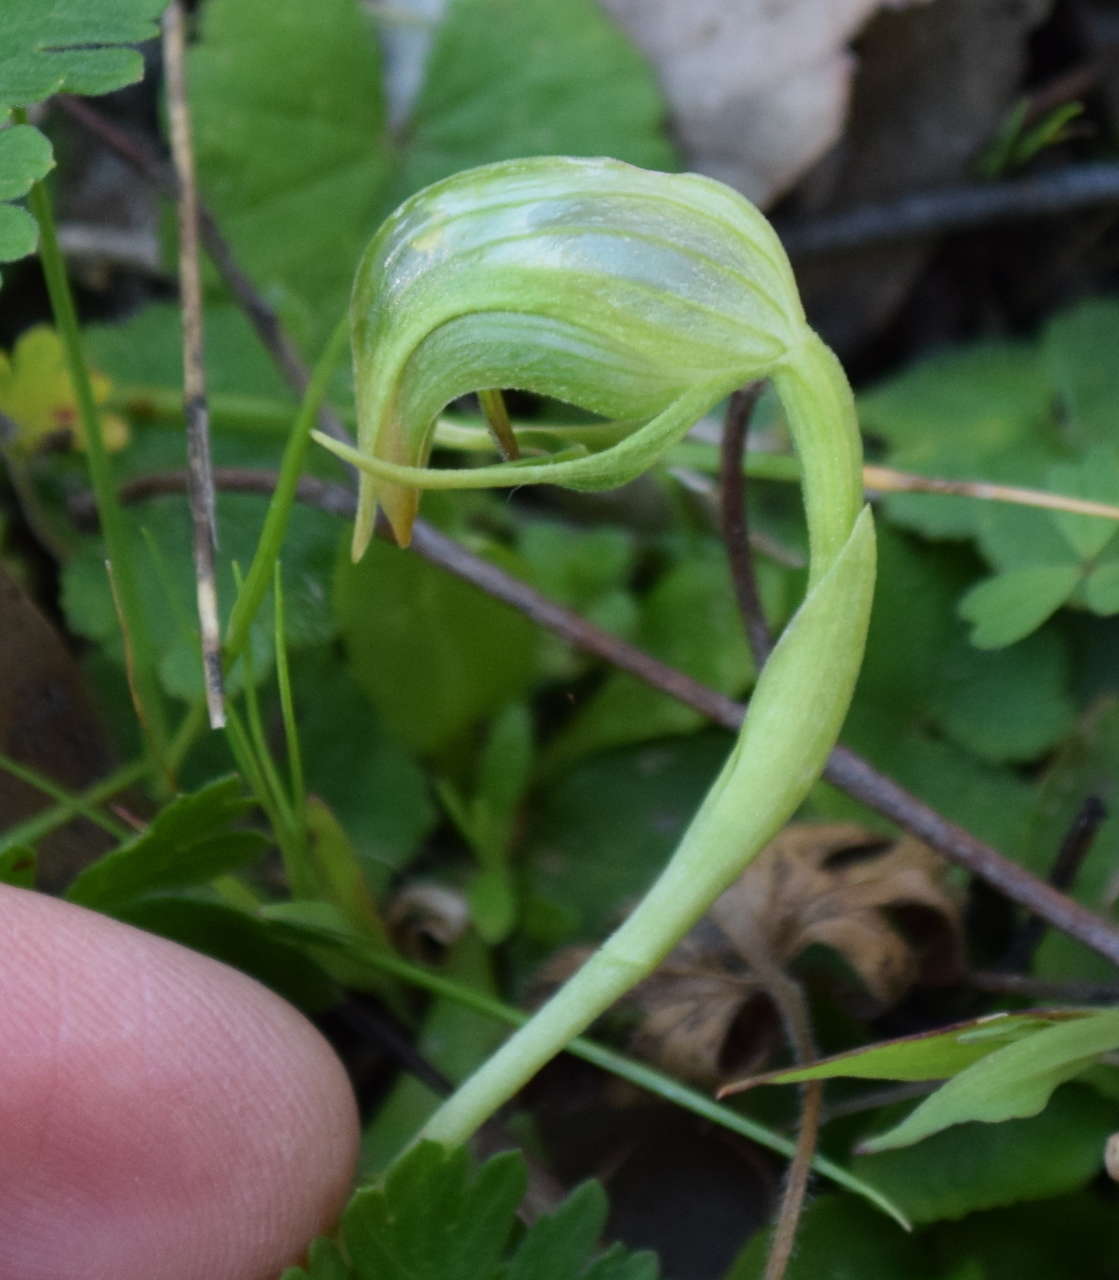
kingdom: Plantae
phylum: Tracheophyta
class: Liliopsida
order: Asparagales
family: Orchidaceae
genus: Pterostylis
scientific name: Pterostylis nutans
